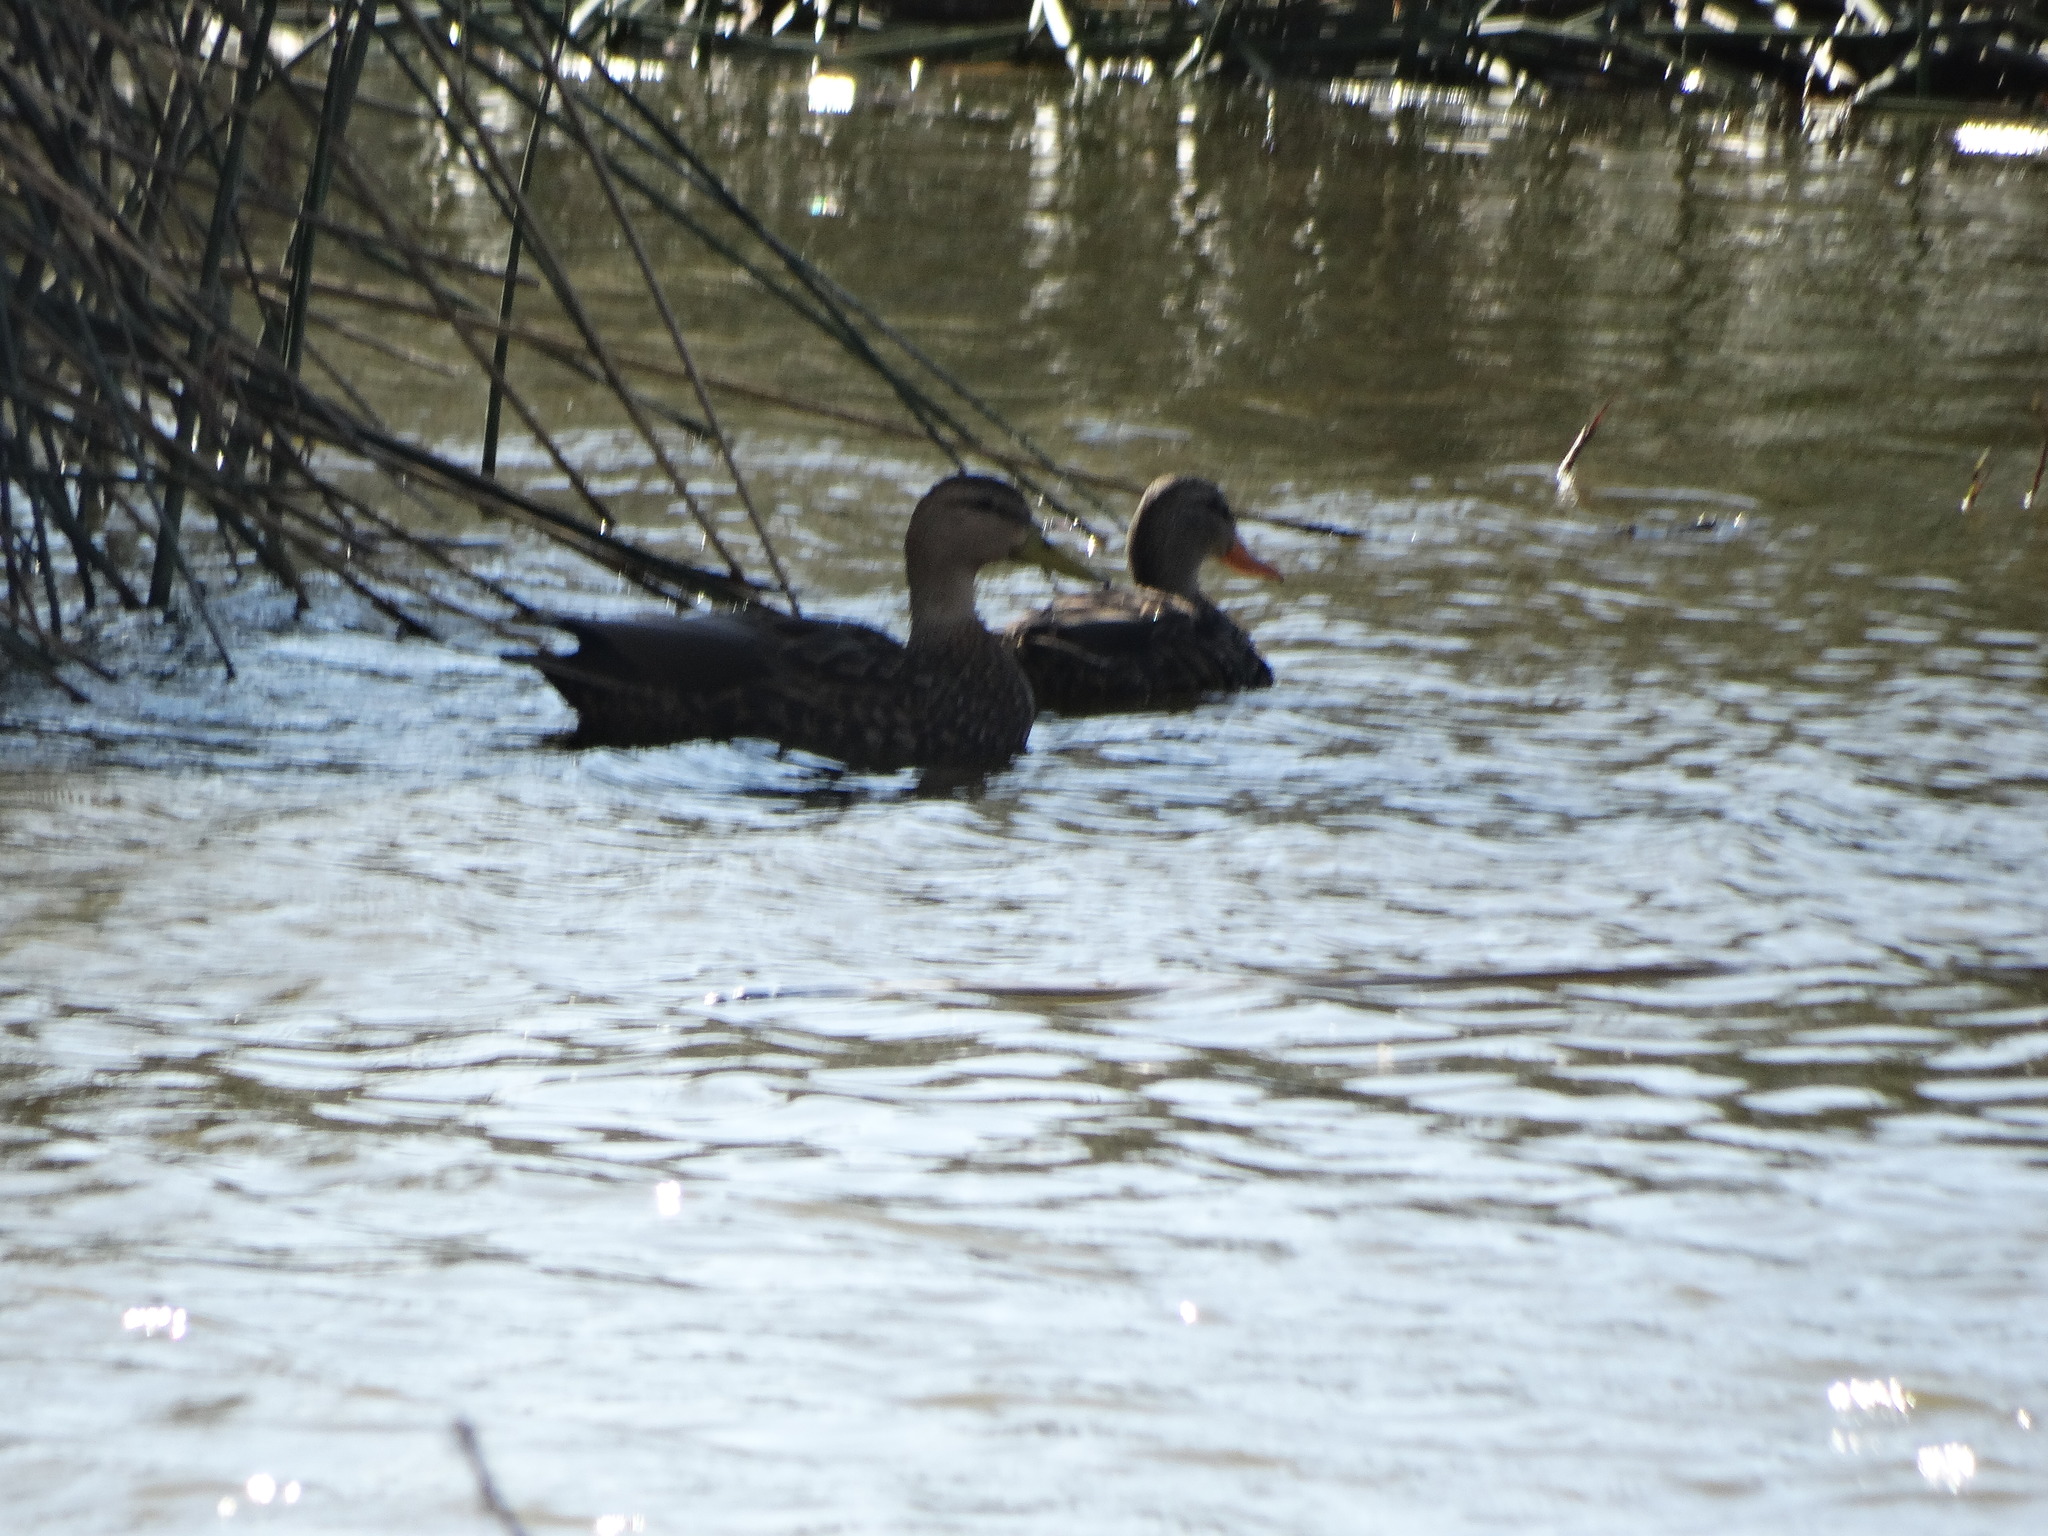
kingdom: Animalia
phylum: Chordata
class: Aves
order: Anseriformes
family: Anatidae
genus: Anas
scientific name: Anas diazi
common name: Mexican duck
